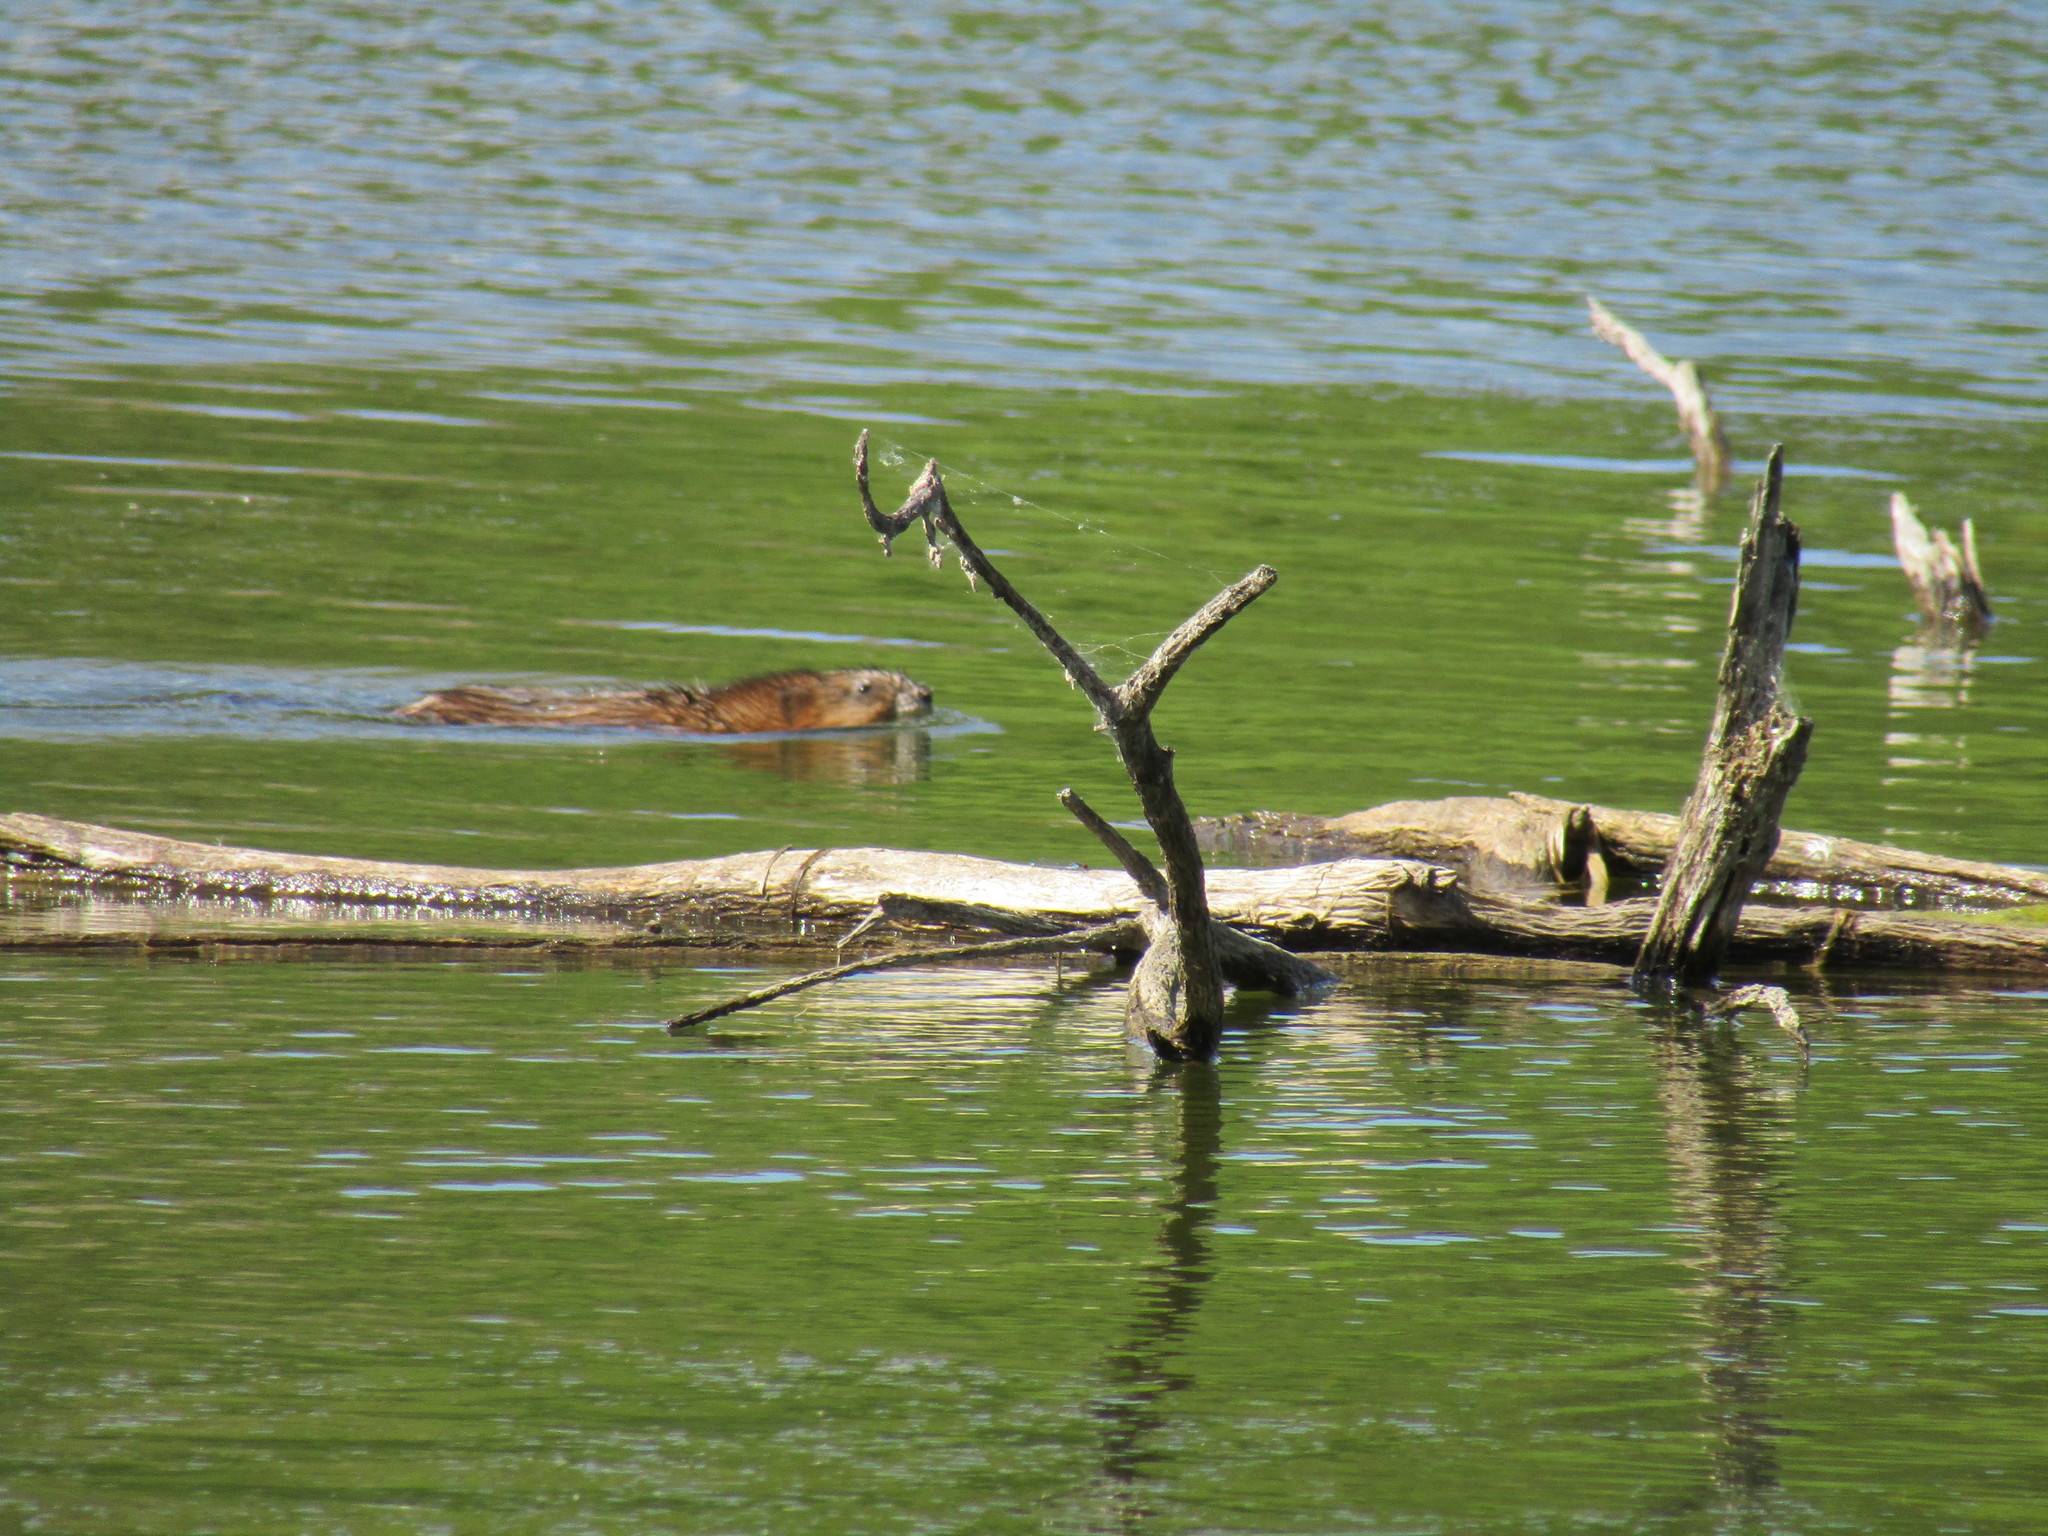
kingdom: Animalia
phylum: Chordata
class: Mammalia
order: Rodentia
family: Cricetidae
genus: Ondatra
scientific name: Ondatra zibethicus
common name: Muskrat
